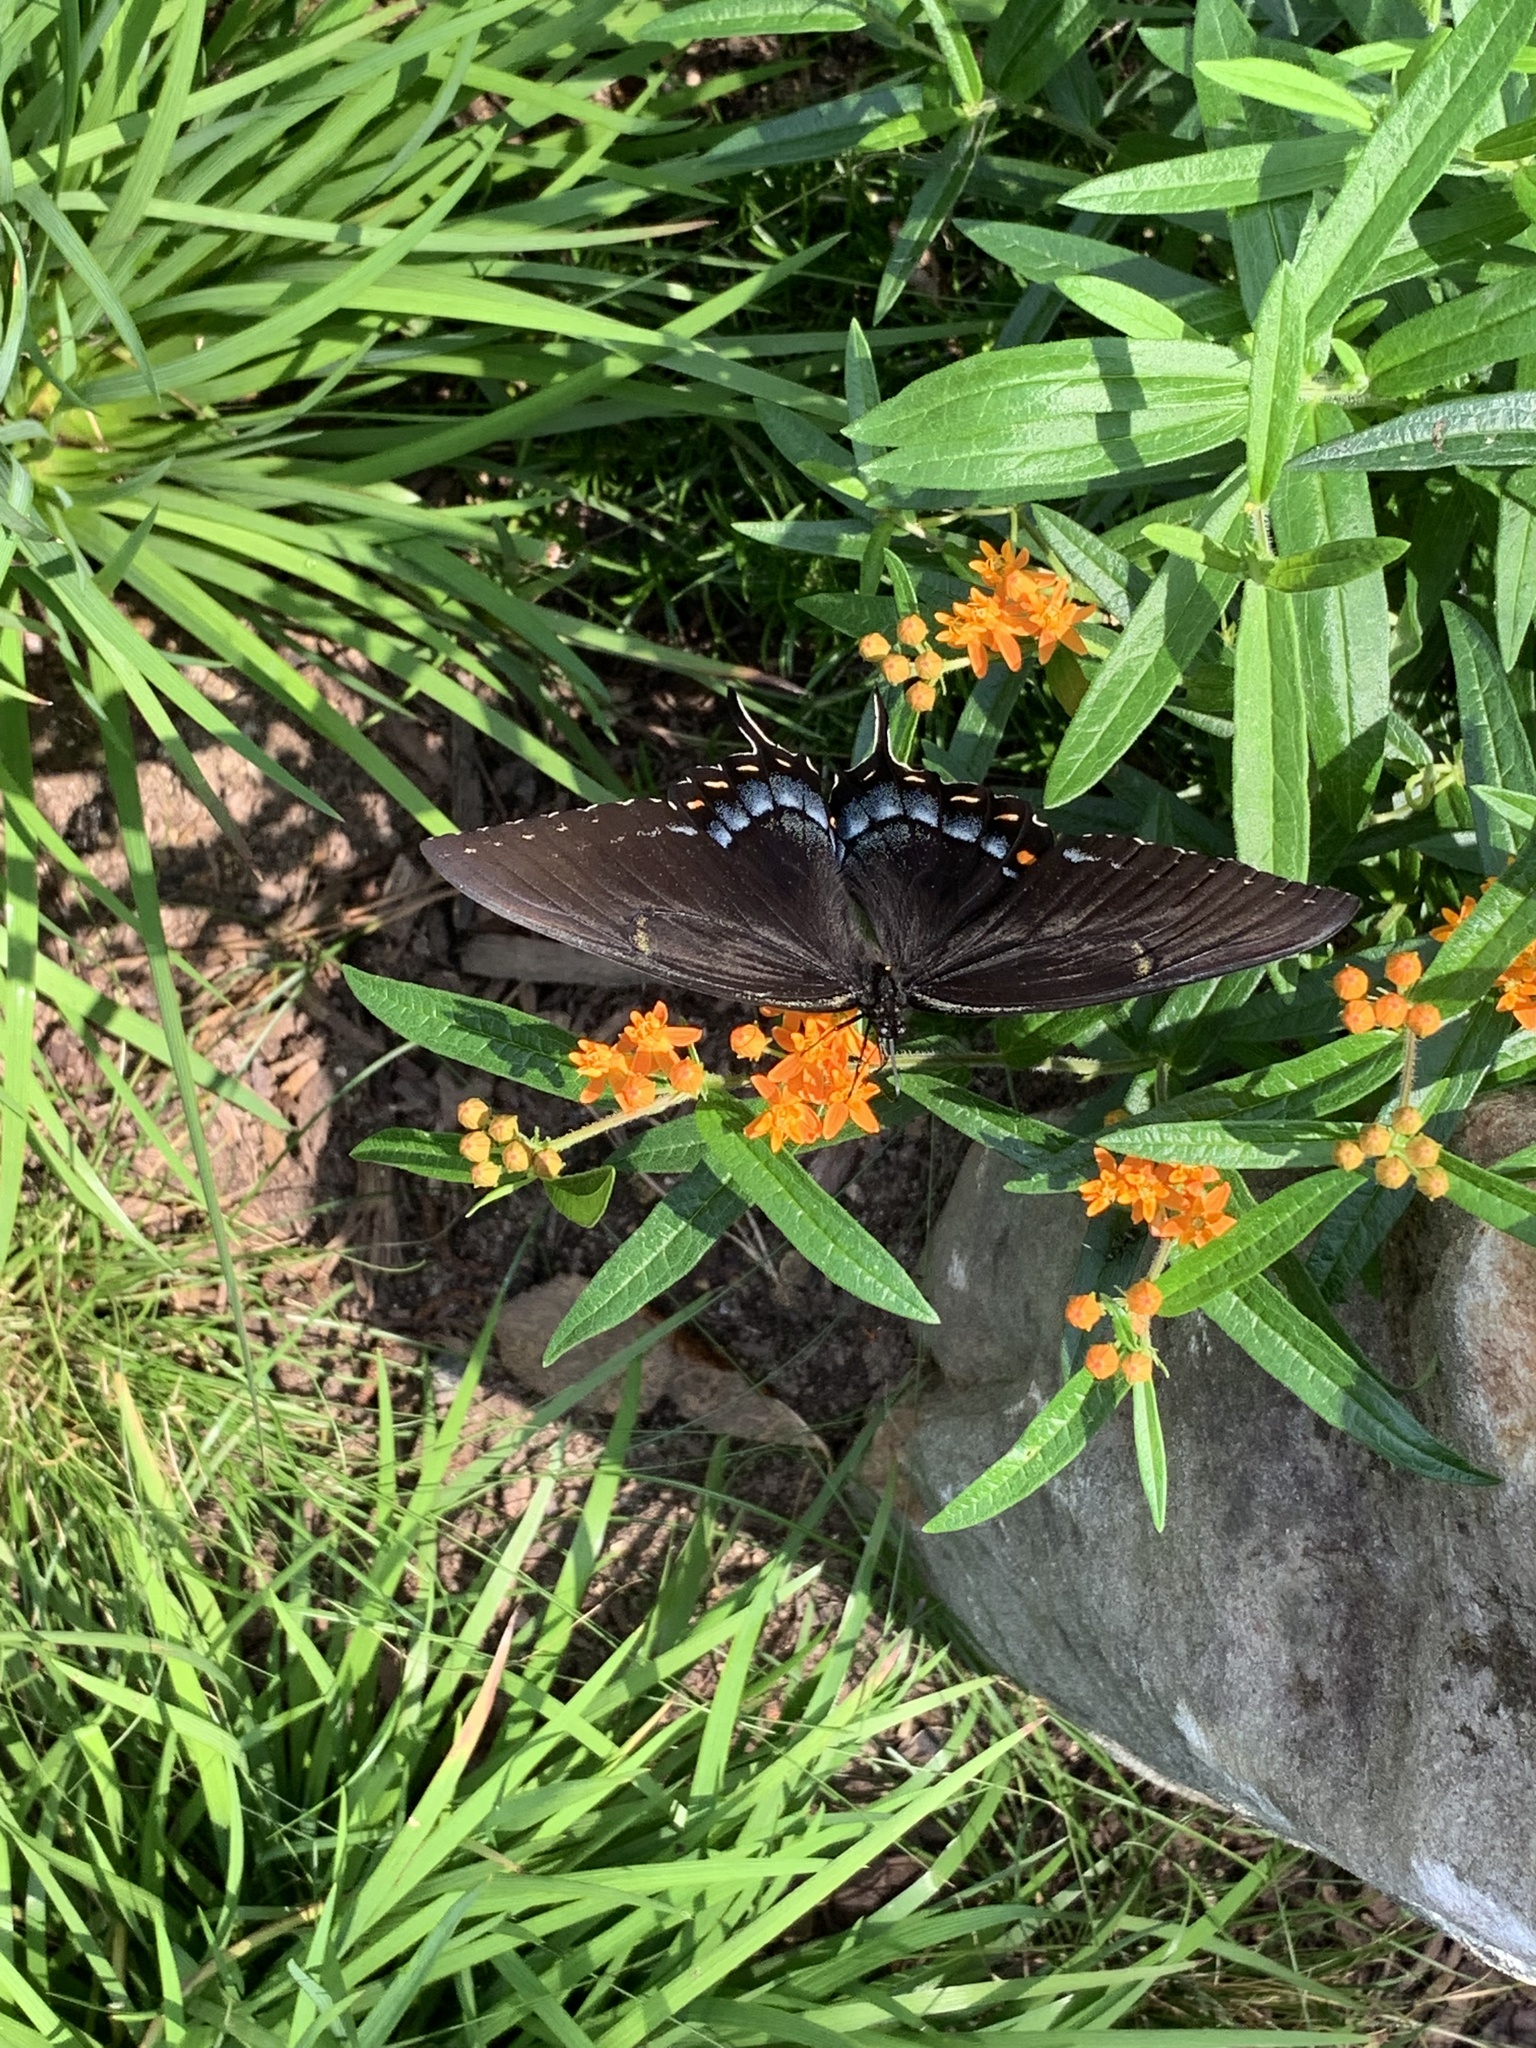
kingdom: Animalia
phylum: Arthropoda
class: Insecta
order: Lepidoptera
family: Papilionidae
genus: Papilio
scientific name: Papilio glaucus
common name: Tiger swallowtail
